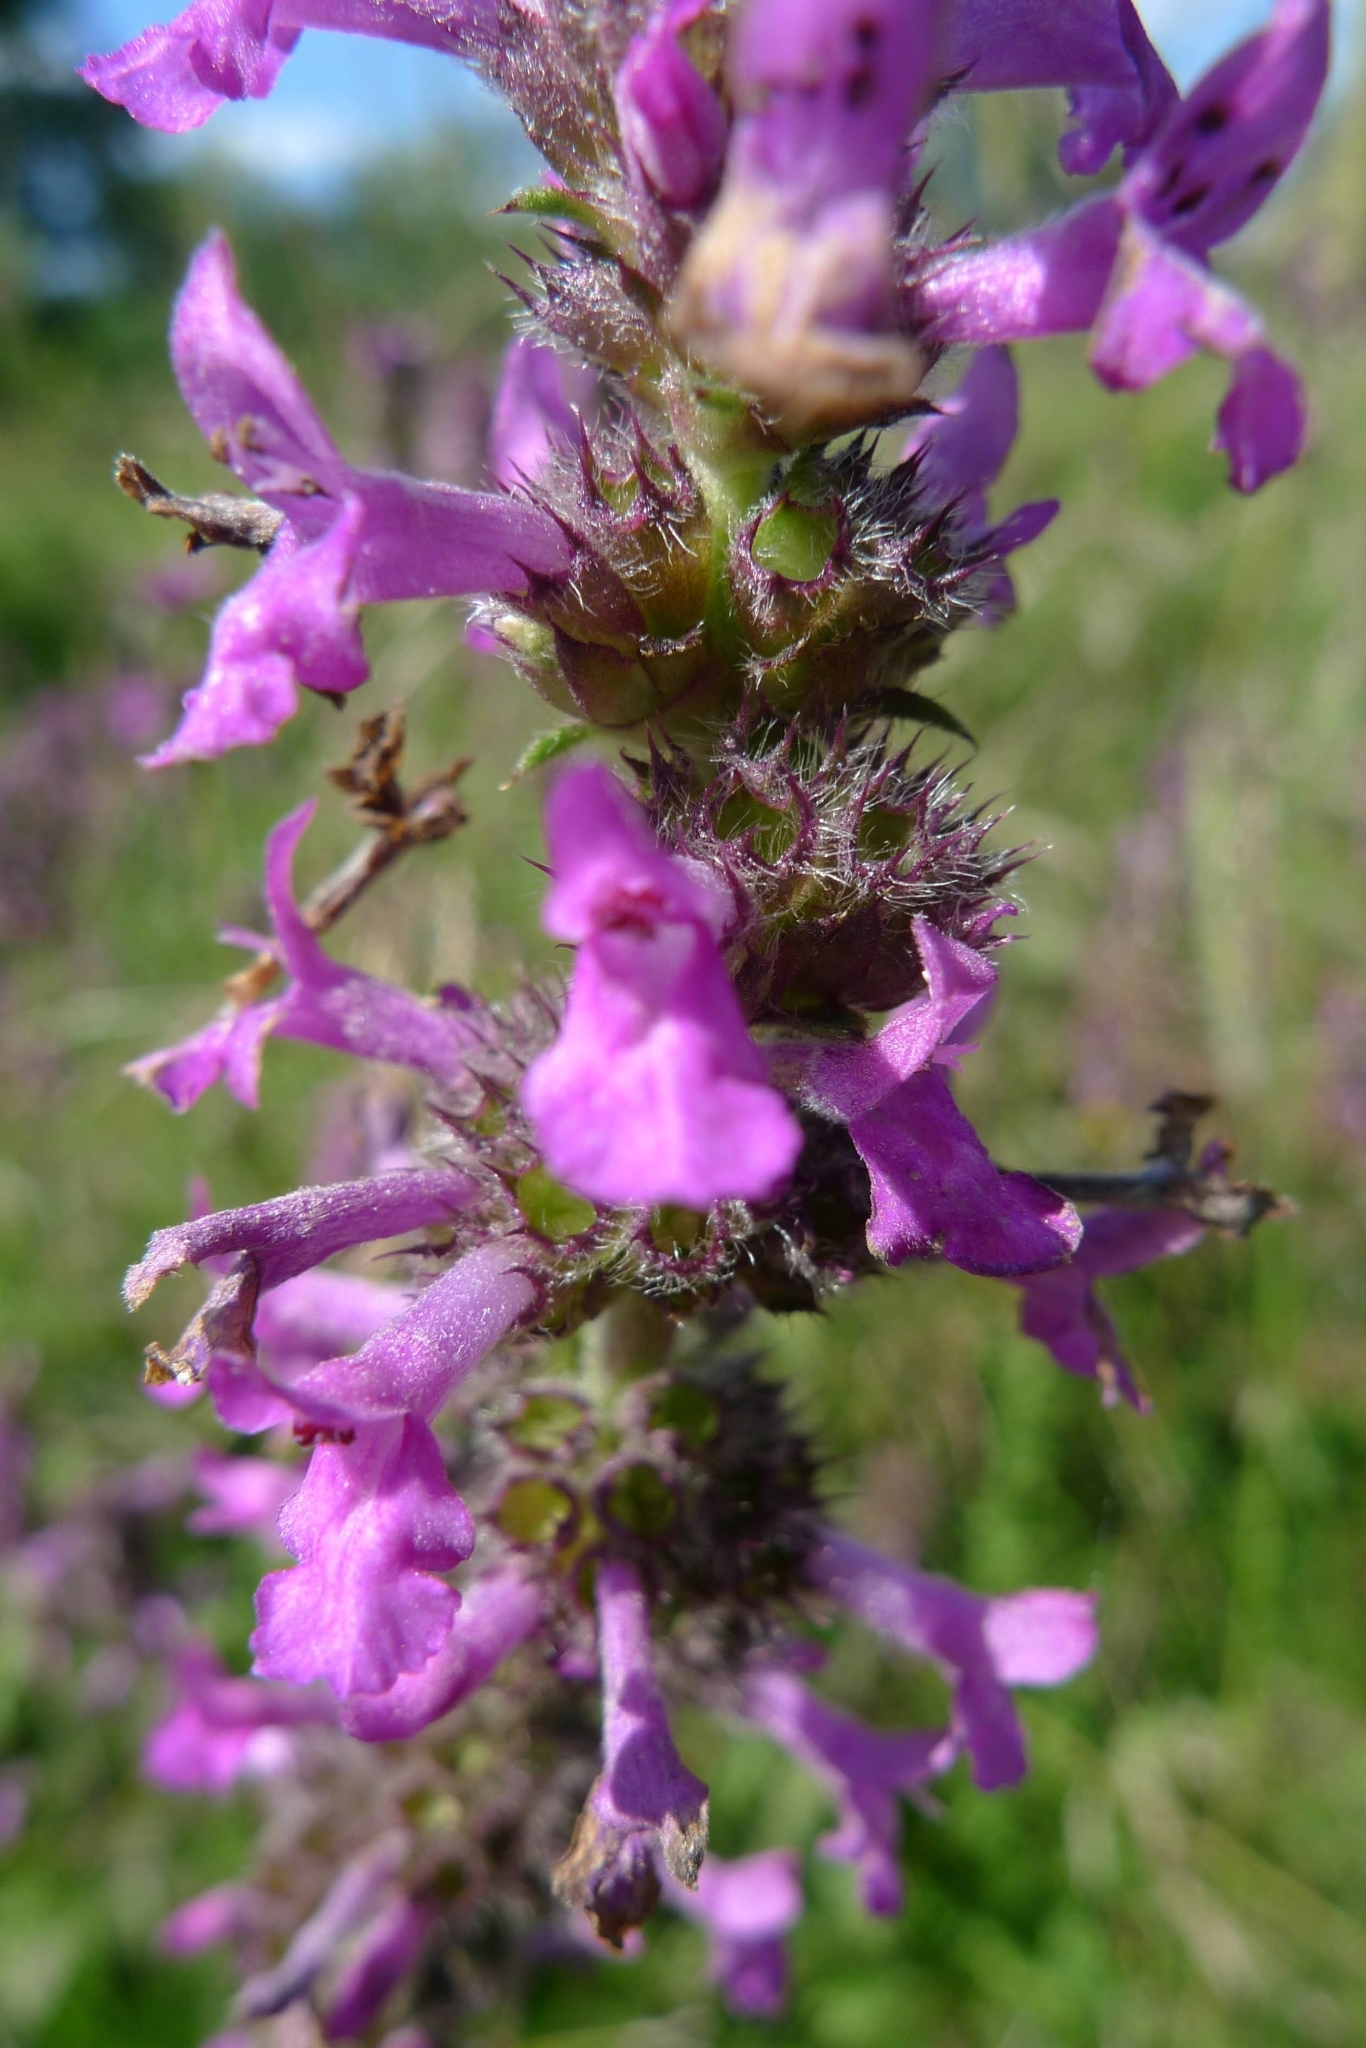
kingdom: Plantae
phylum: Tracheophyta
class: Magnoliopsida
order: Lamiales
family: Lamiaceae
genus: Betonica
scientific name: Betonica officinalis
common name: Bishop's-wort
